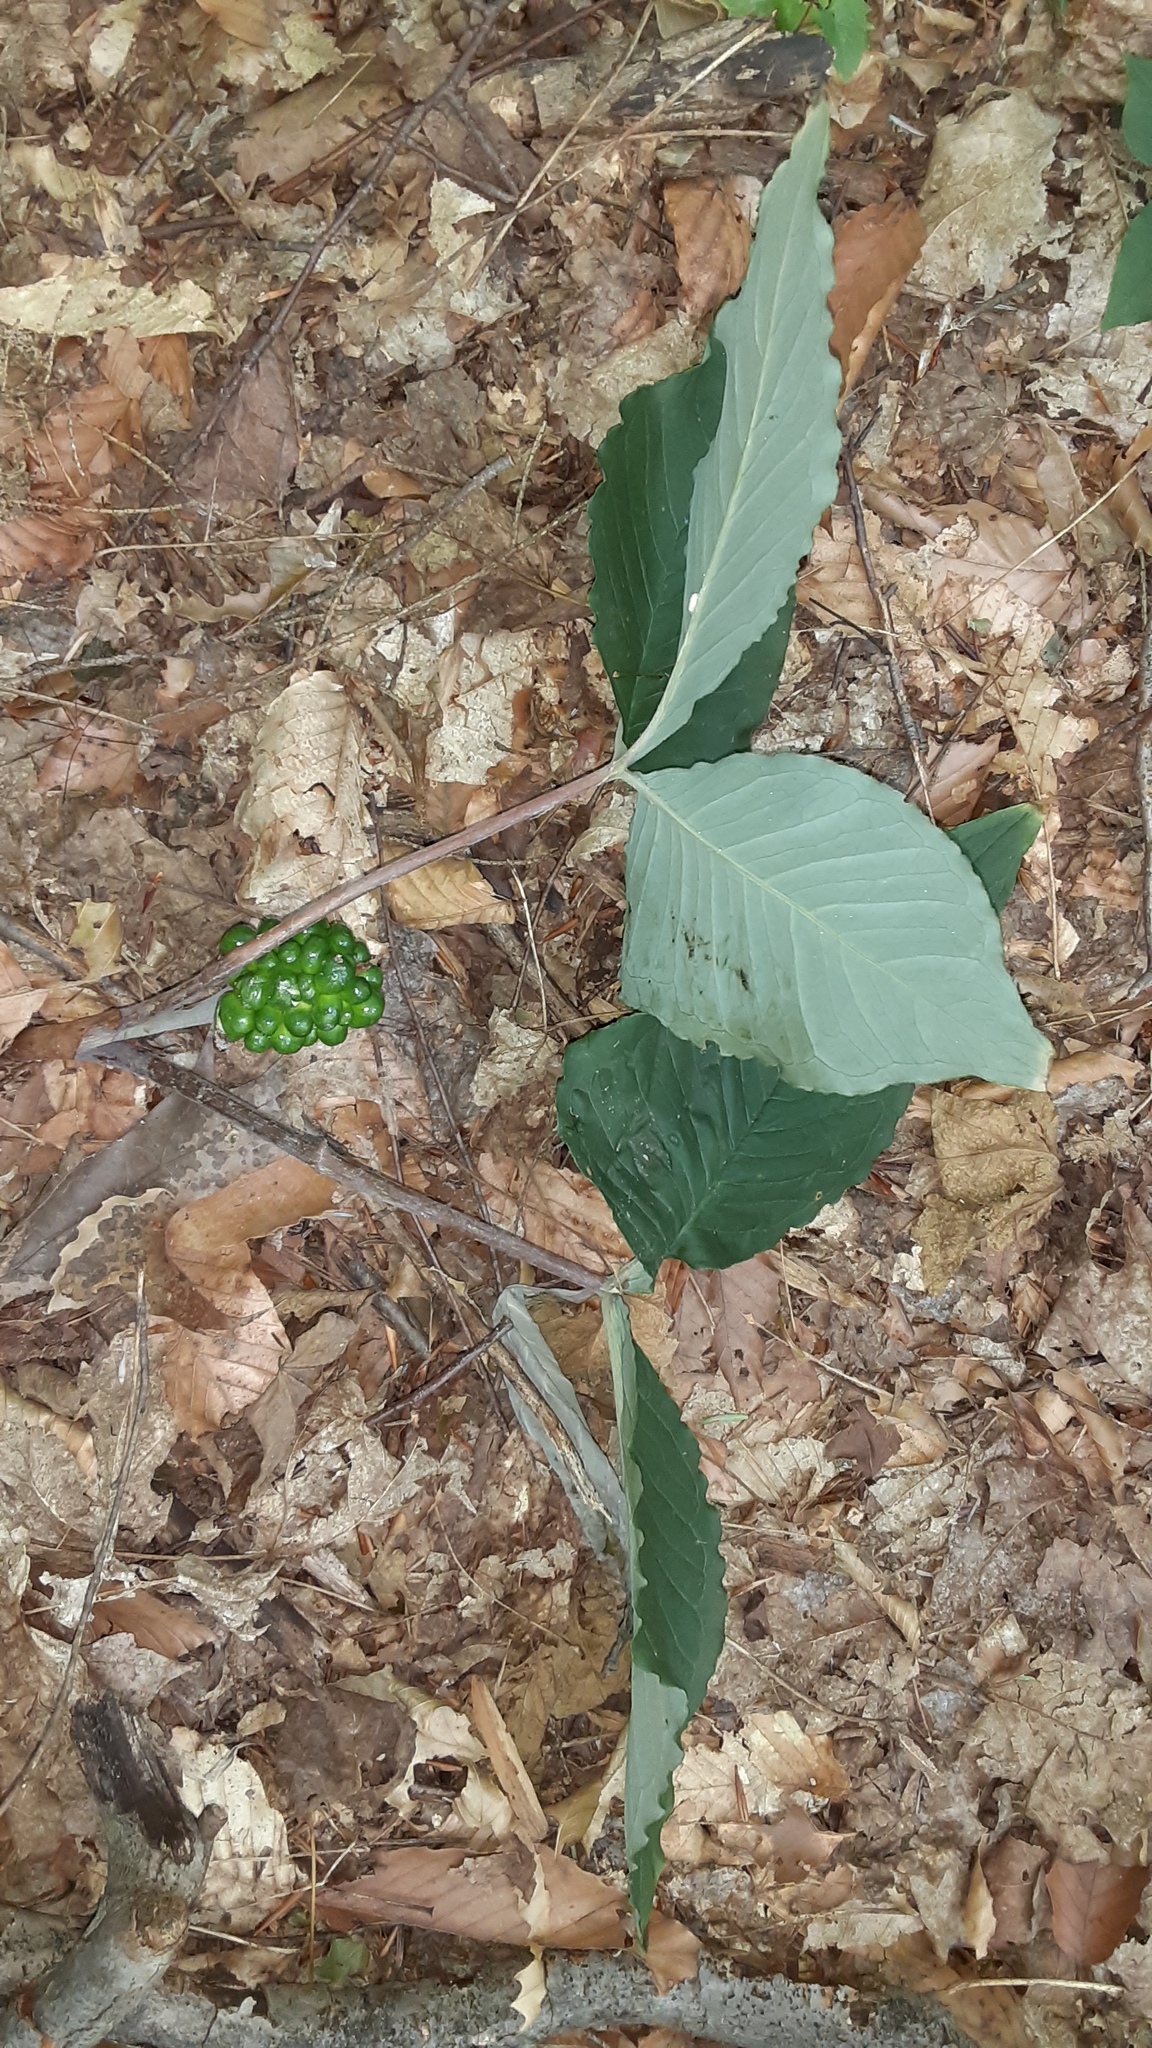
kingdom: Plantae
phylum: Tracheophyta
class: Liliopsida
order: Alismatales
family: Araceae
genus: Arisaema
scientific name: Arisaema triphyllum
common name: Jack-in-the-pulpit
